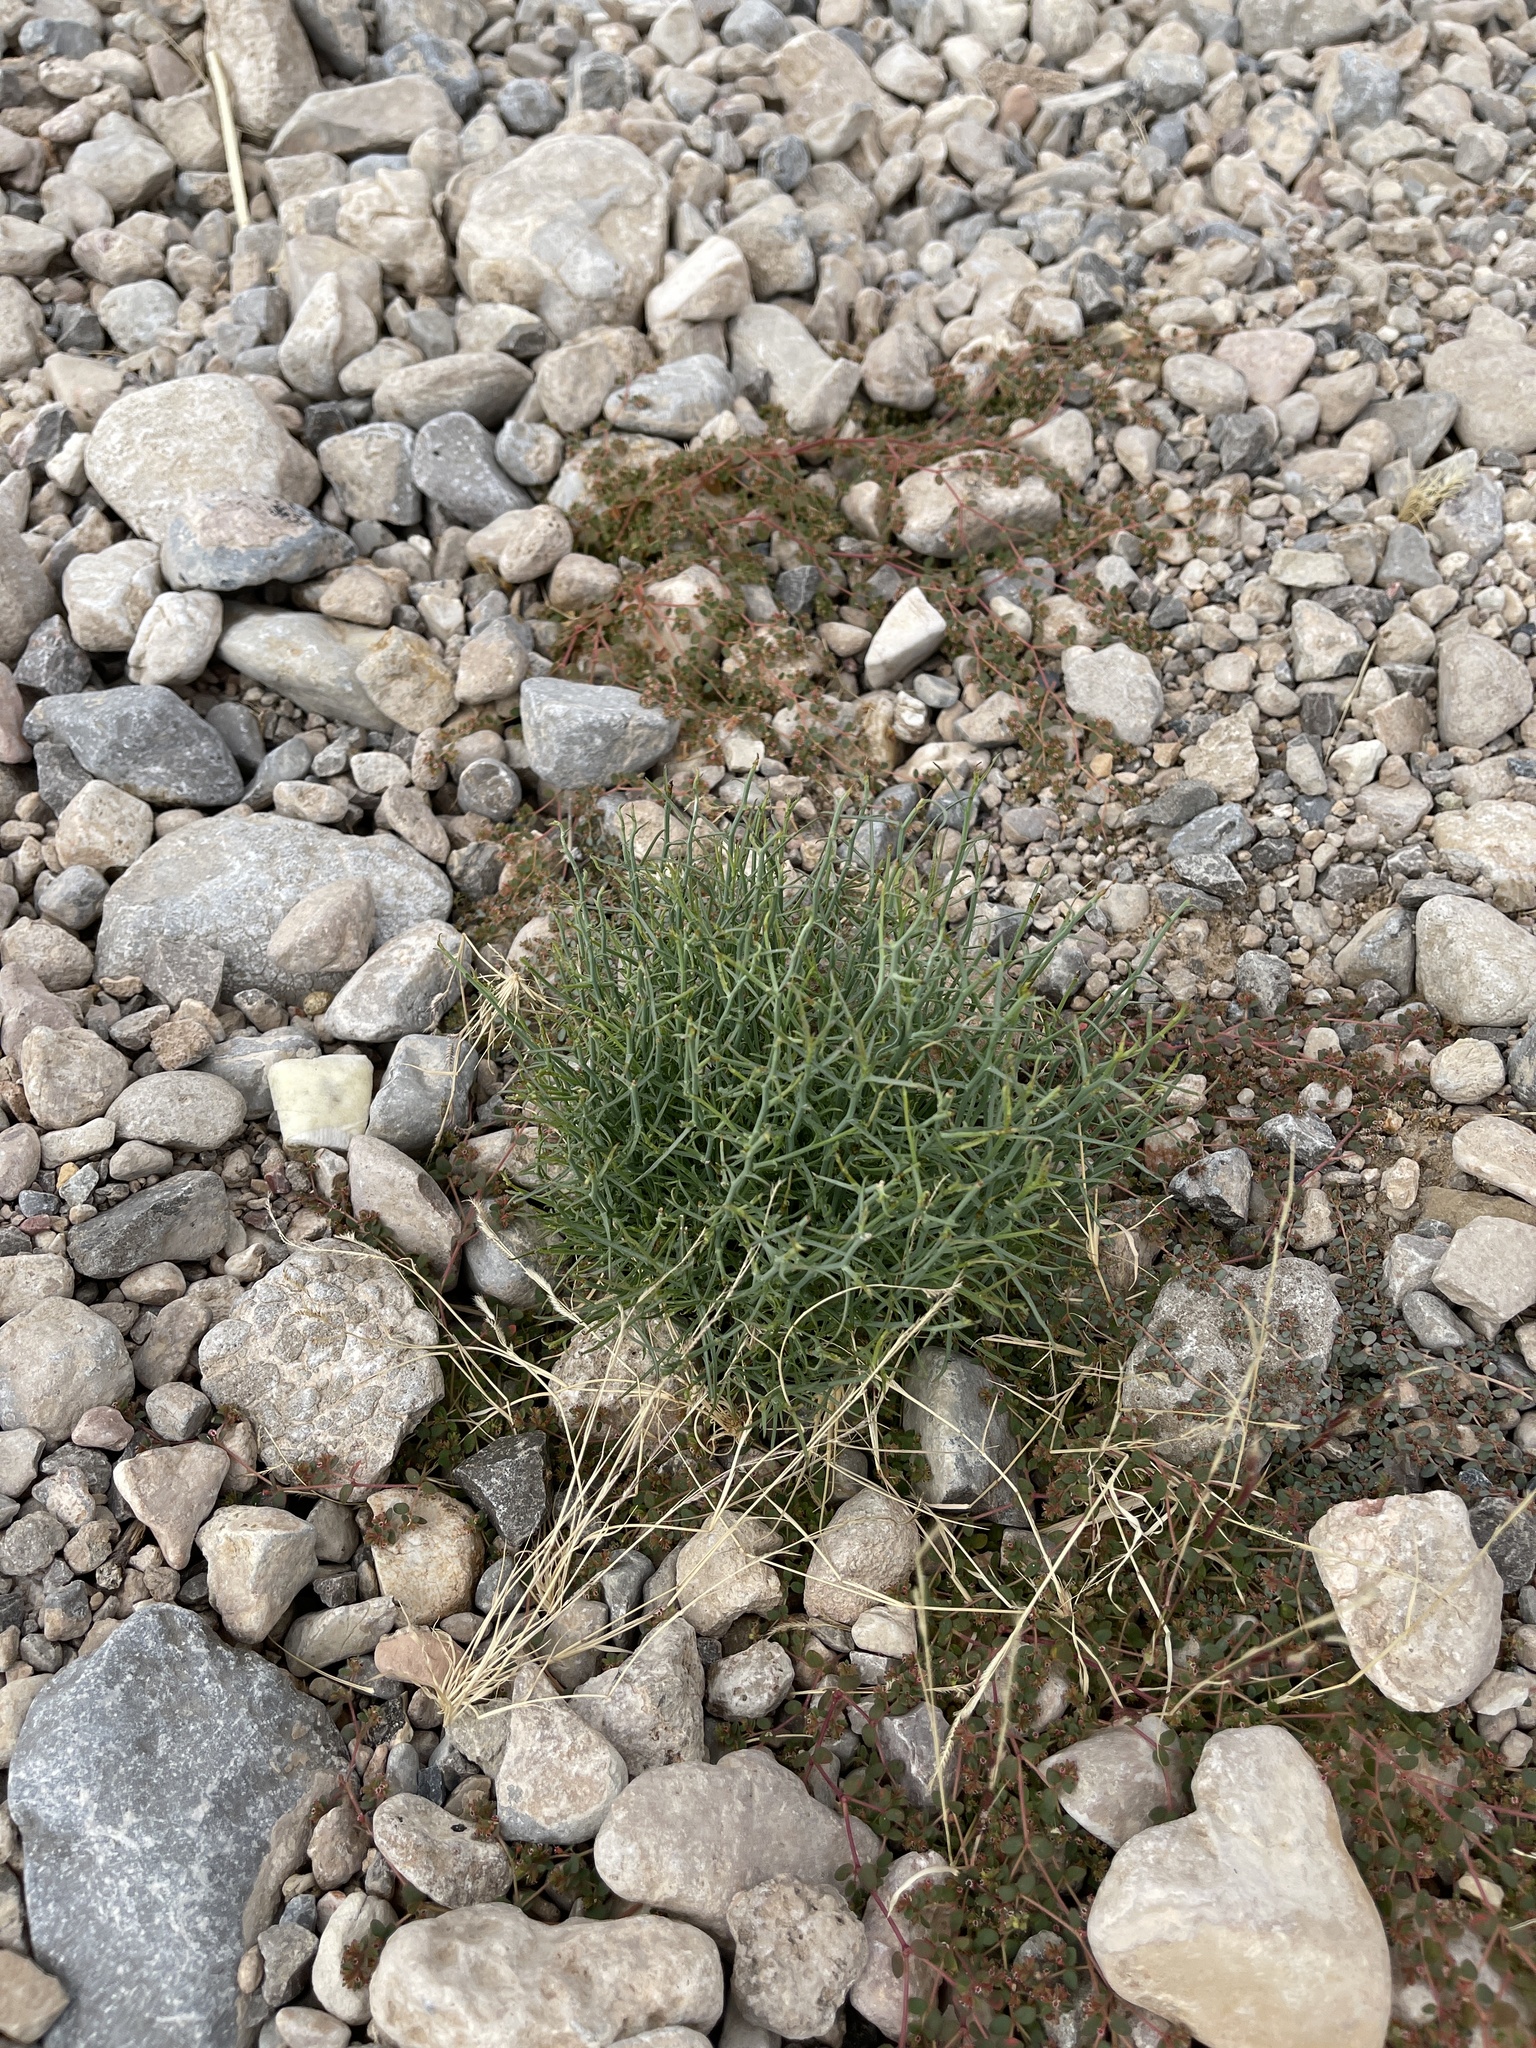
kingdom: Plantae
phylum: Tracheophyta
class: Magnoliopsida
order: Asterales
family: Asteraceae
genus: Stephanomeria
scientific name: Stephanomeria pauciflora
